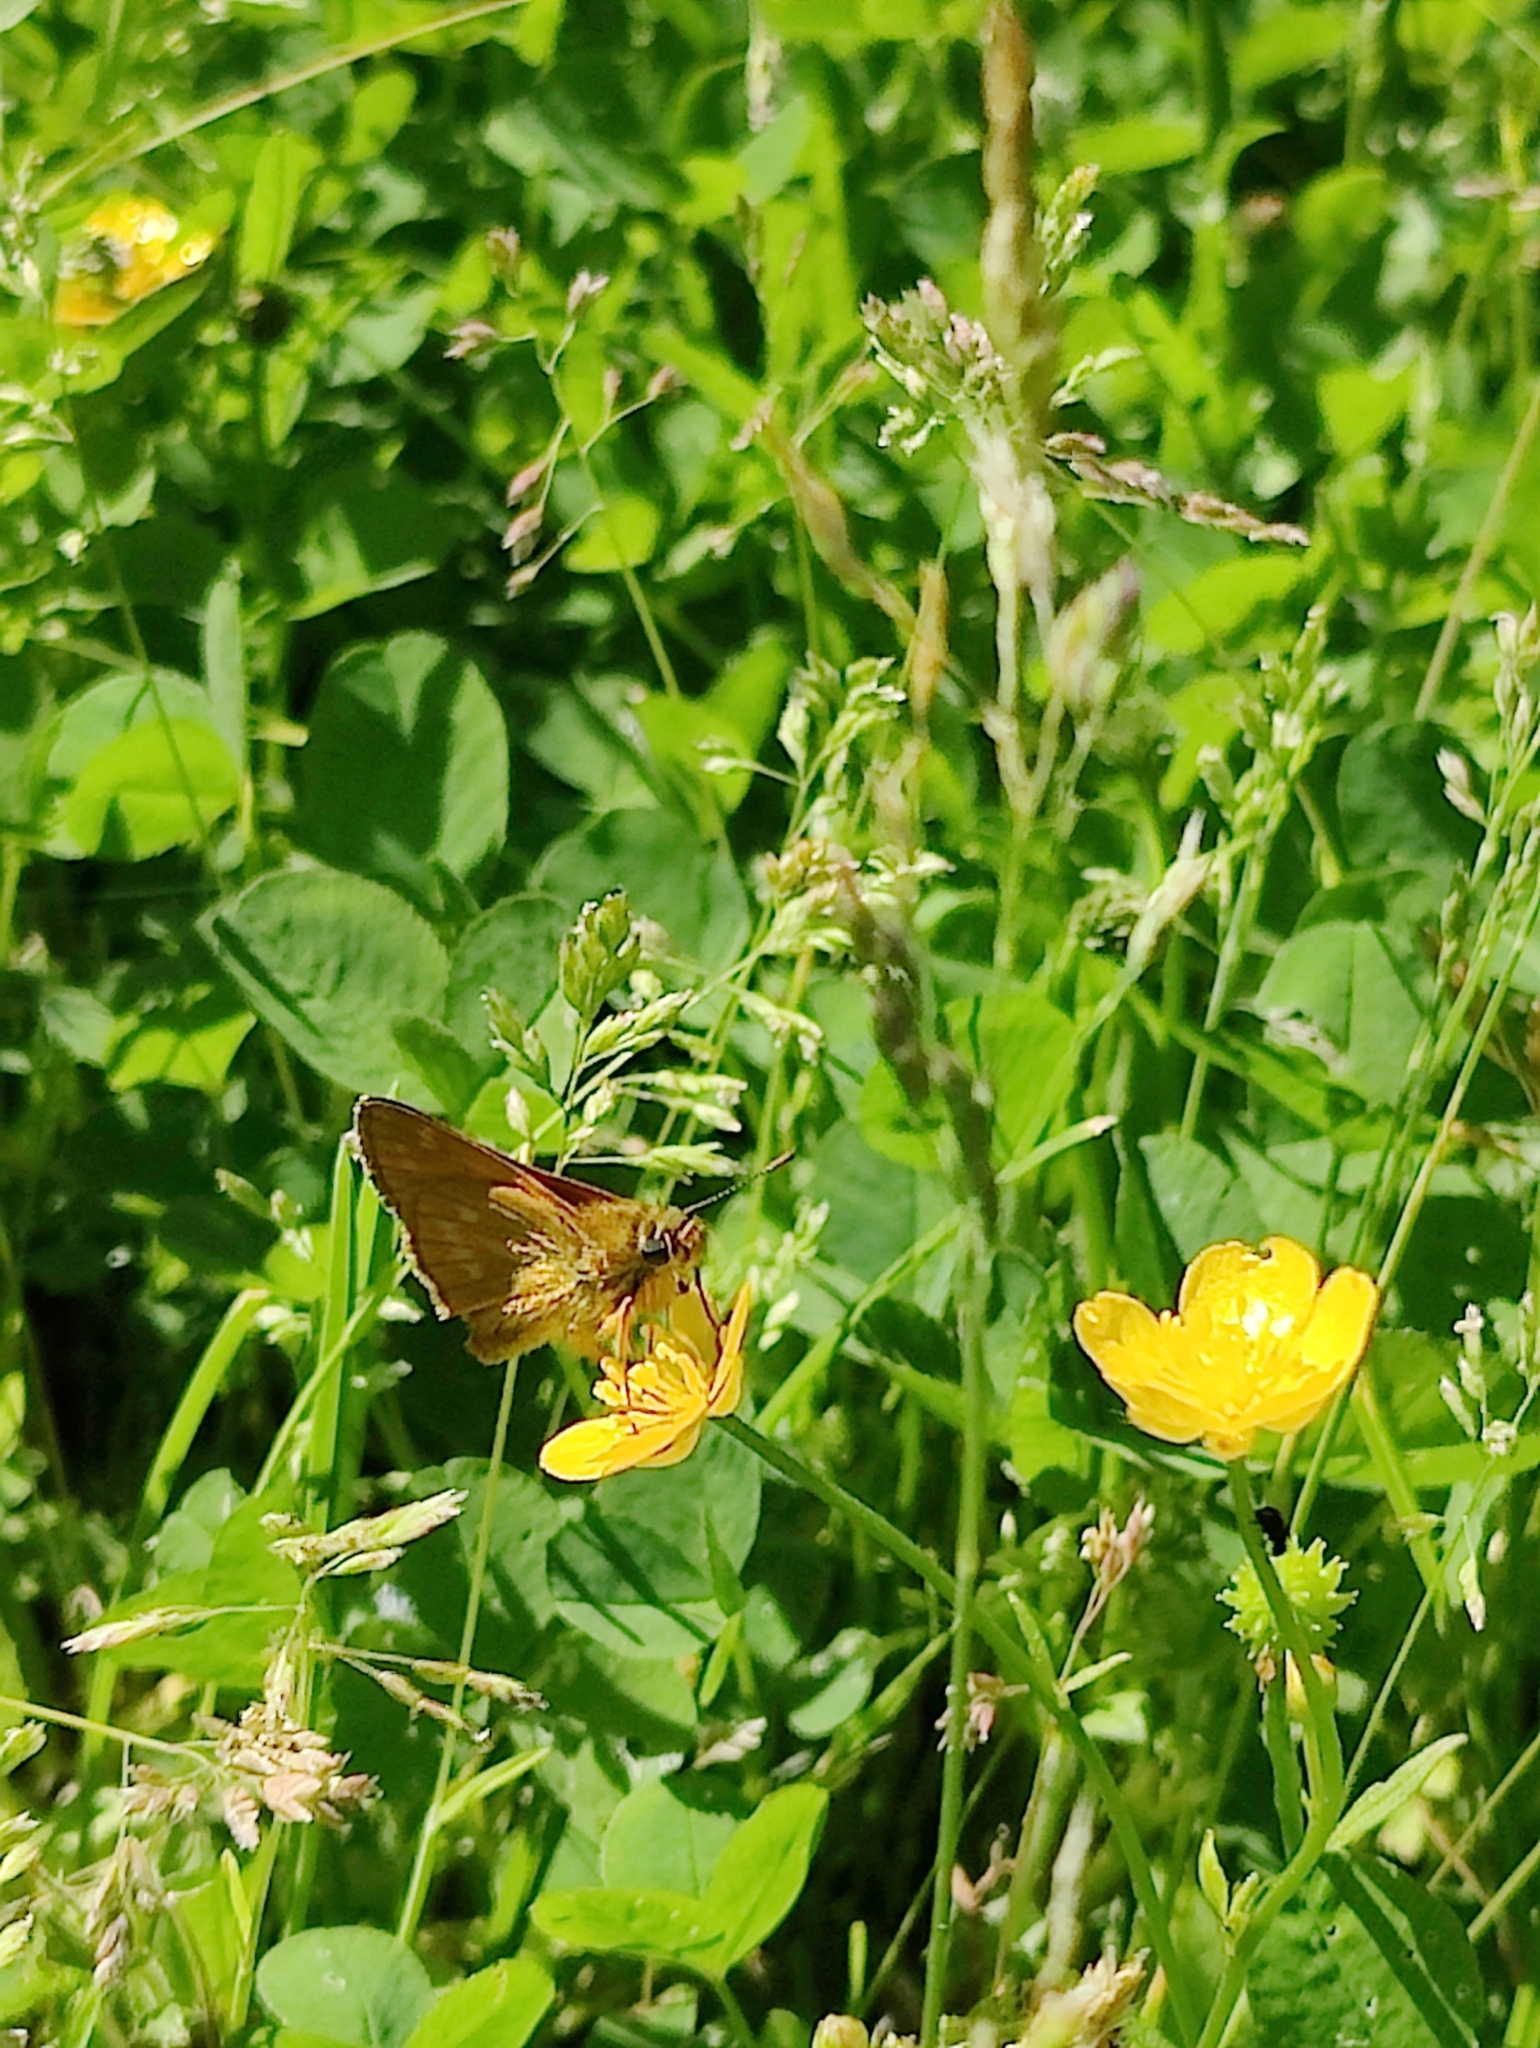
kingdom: Animalia
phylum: Arthropoda
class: Insecta
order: Lepidoptera
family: Hesperiidae
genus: Ochlodes
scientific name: Ochlodes venata
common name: Large skipper
